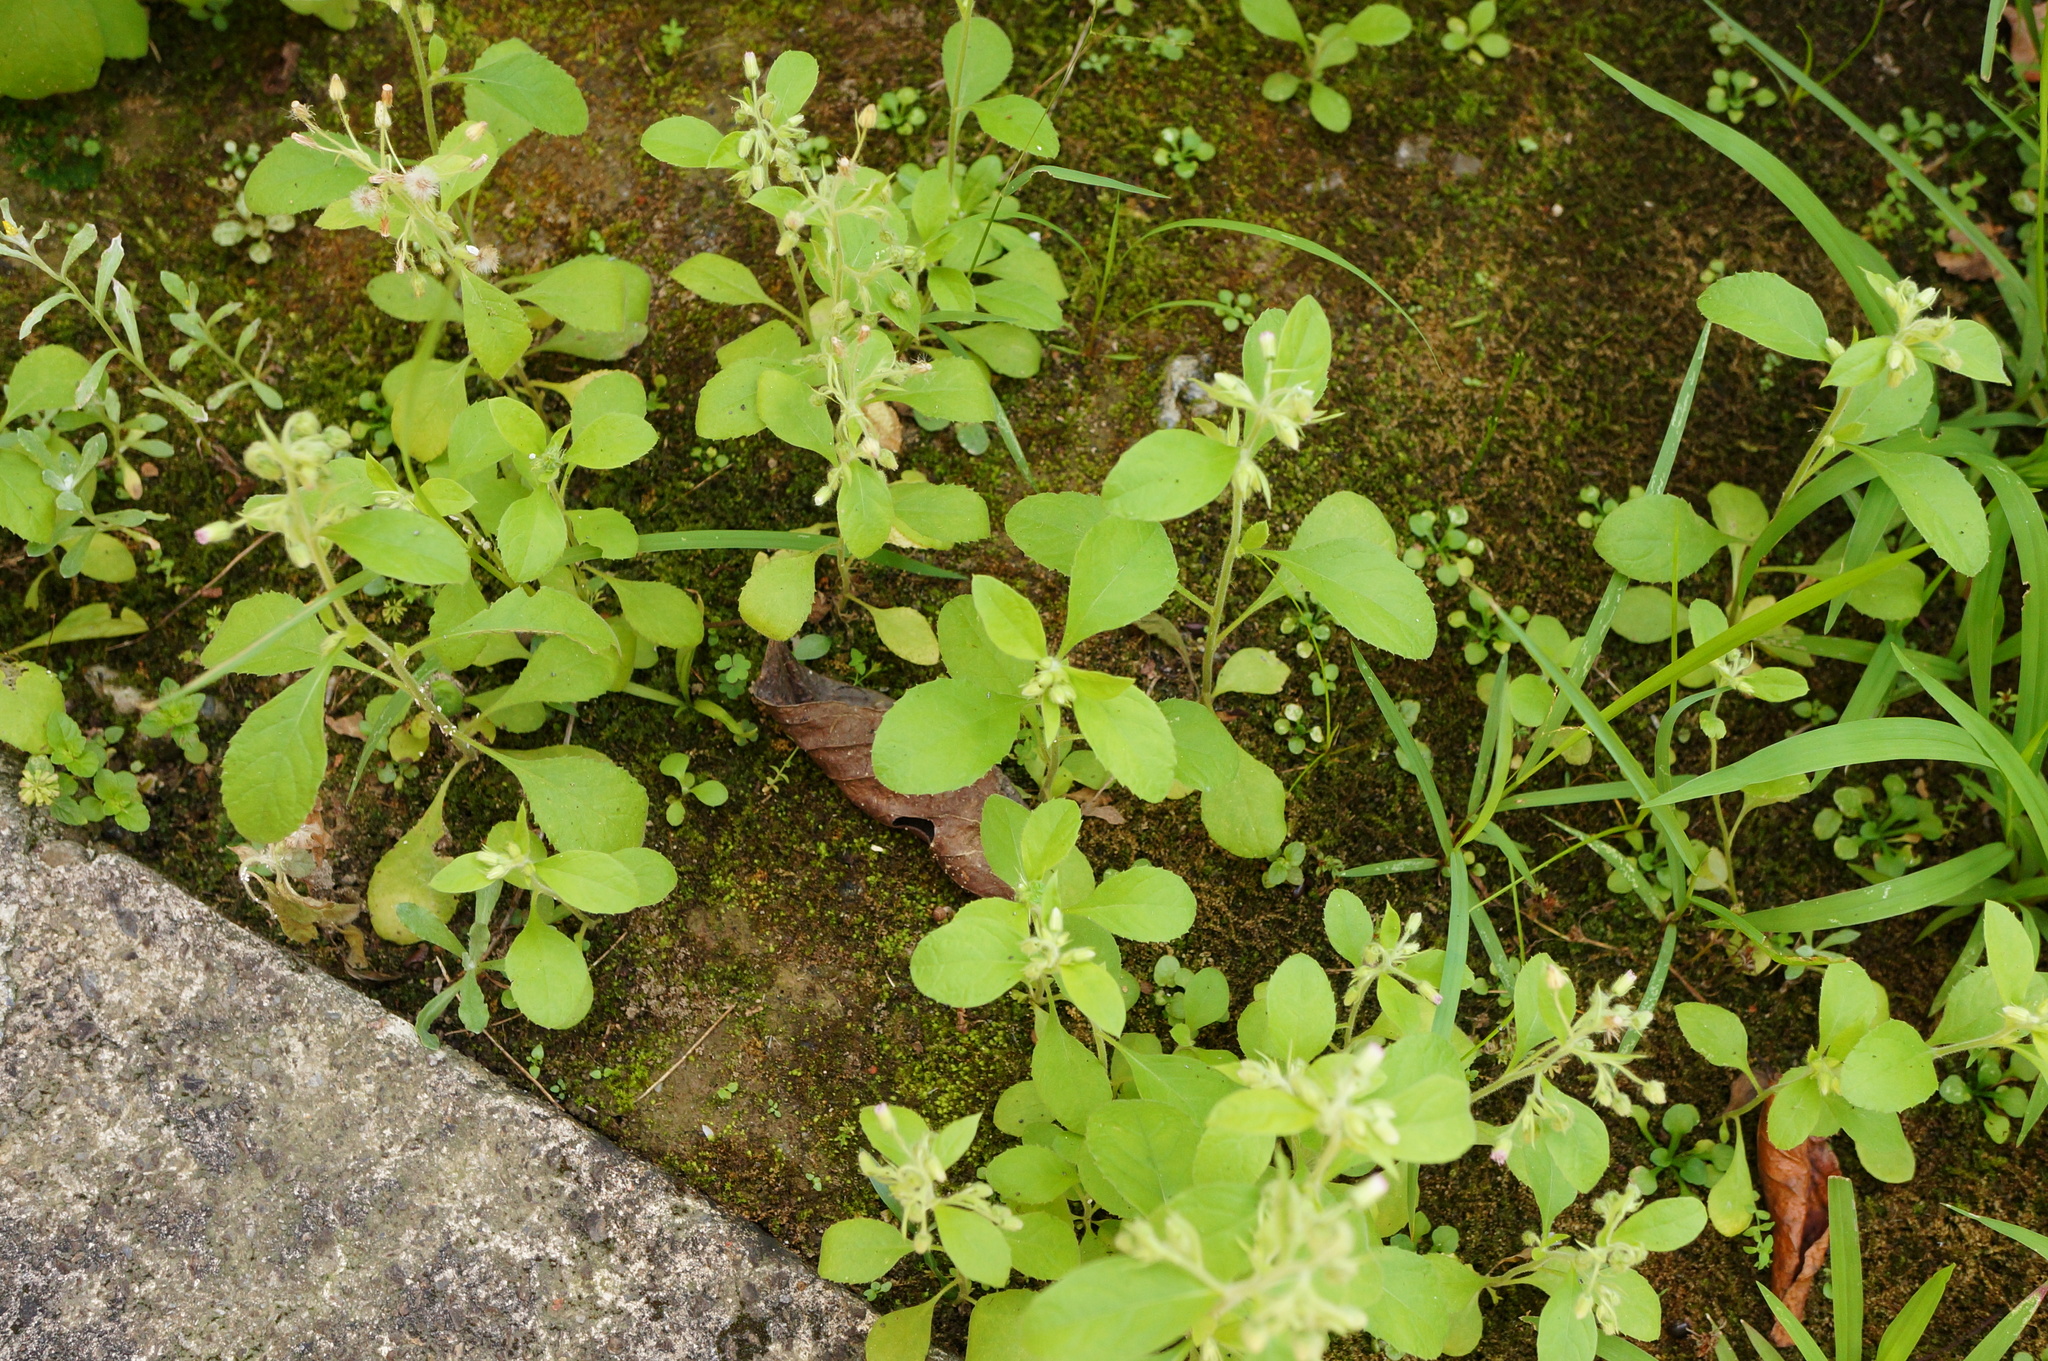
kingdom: Plantae
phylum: Tracheophyta
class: Magnoliopsida
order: Asterales
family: Asteraceae
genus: Blumea
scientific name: Blumea axillaris
